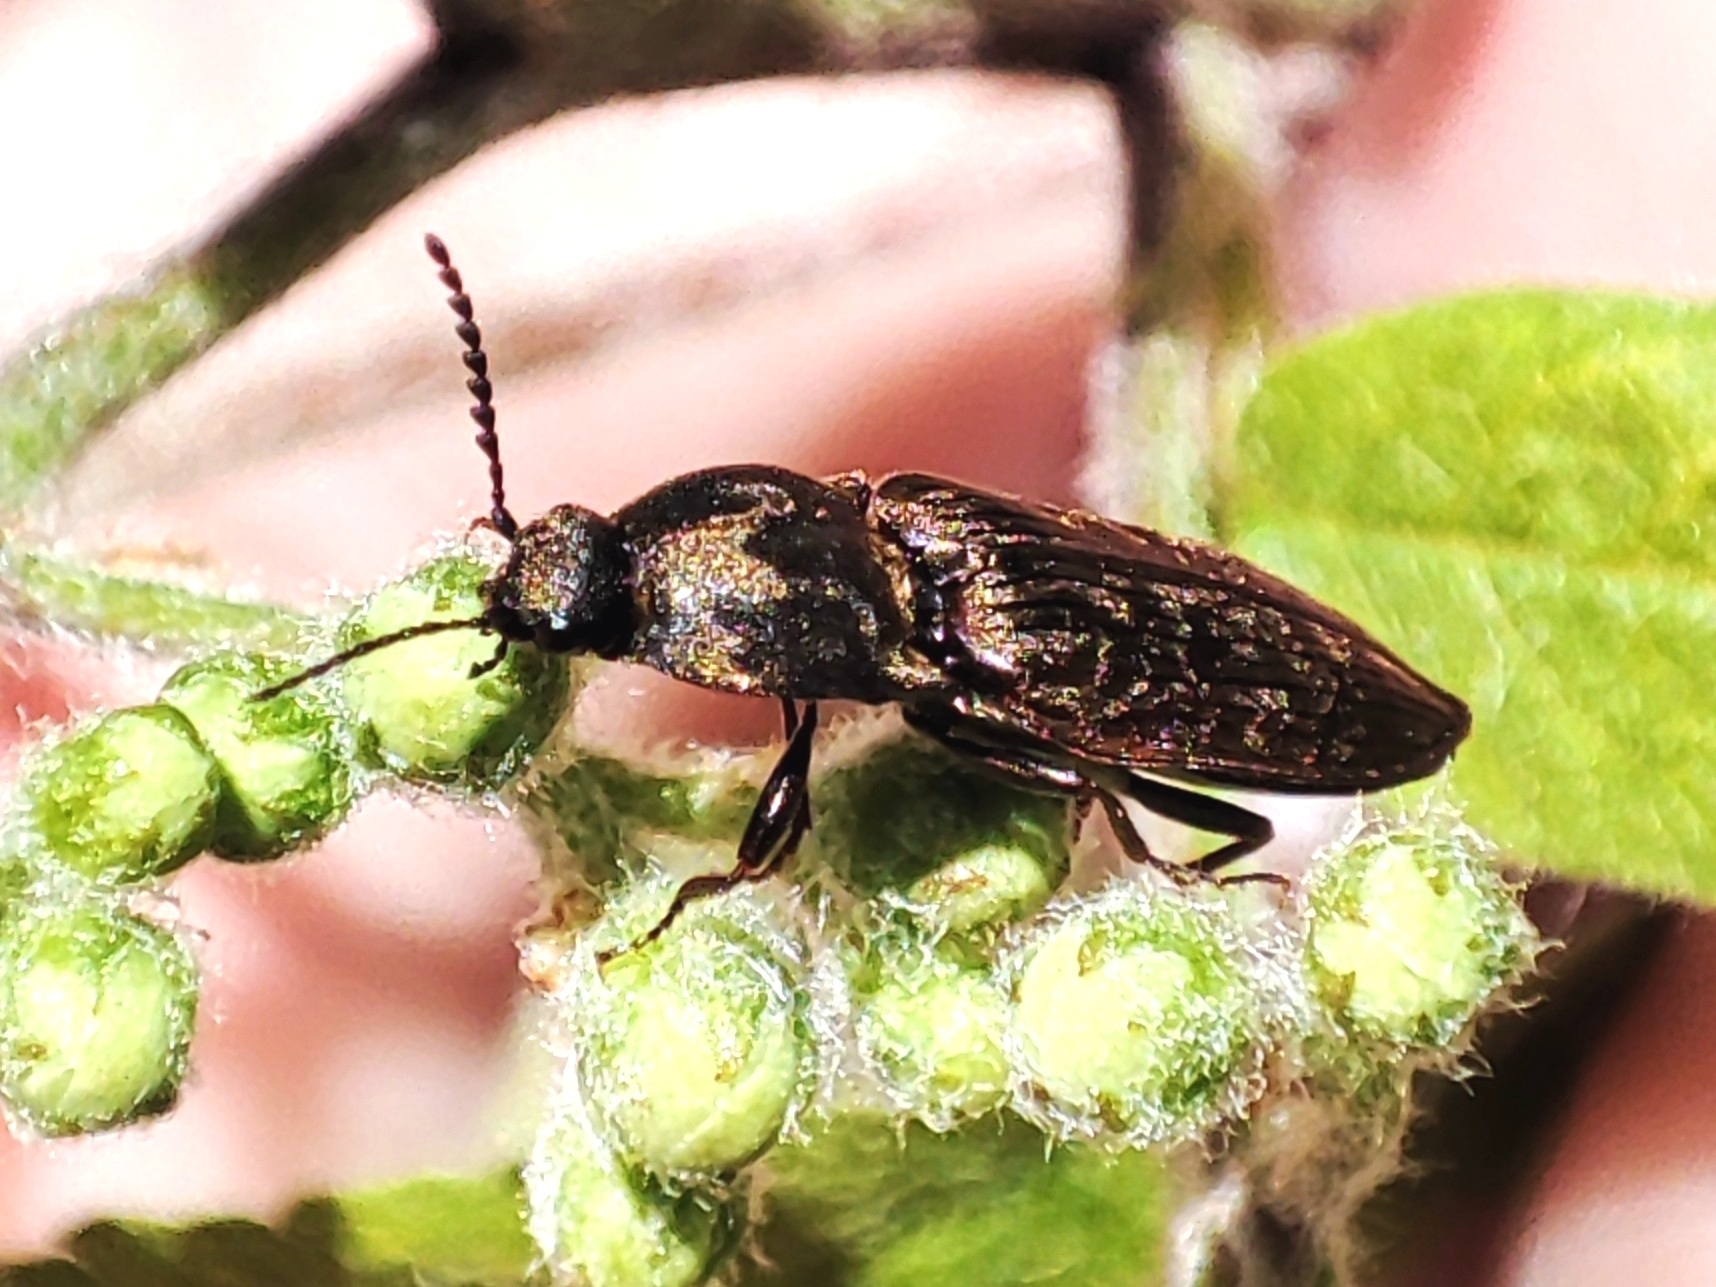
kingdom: Animalia
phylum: Arthropoda
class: Insecta
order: Coleoptera
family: Elateridae
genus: Prosternon
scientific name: Prosternon tessellatum
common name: Chequered click beetle
